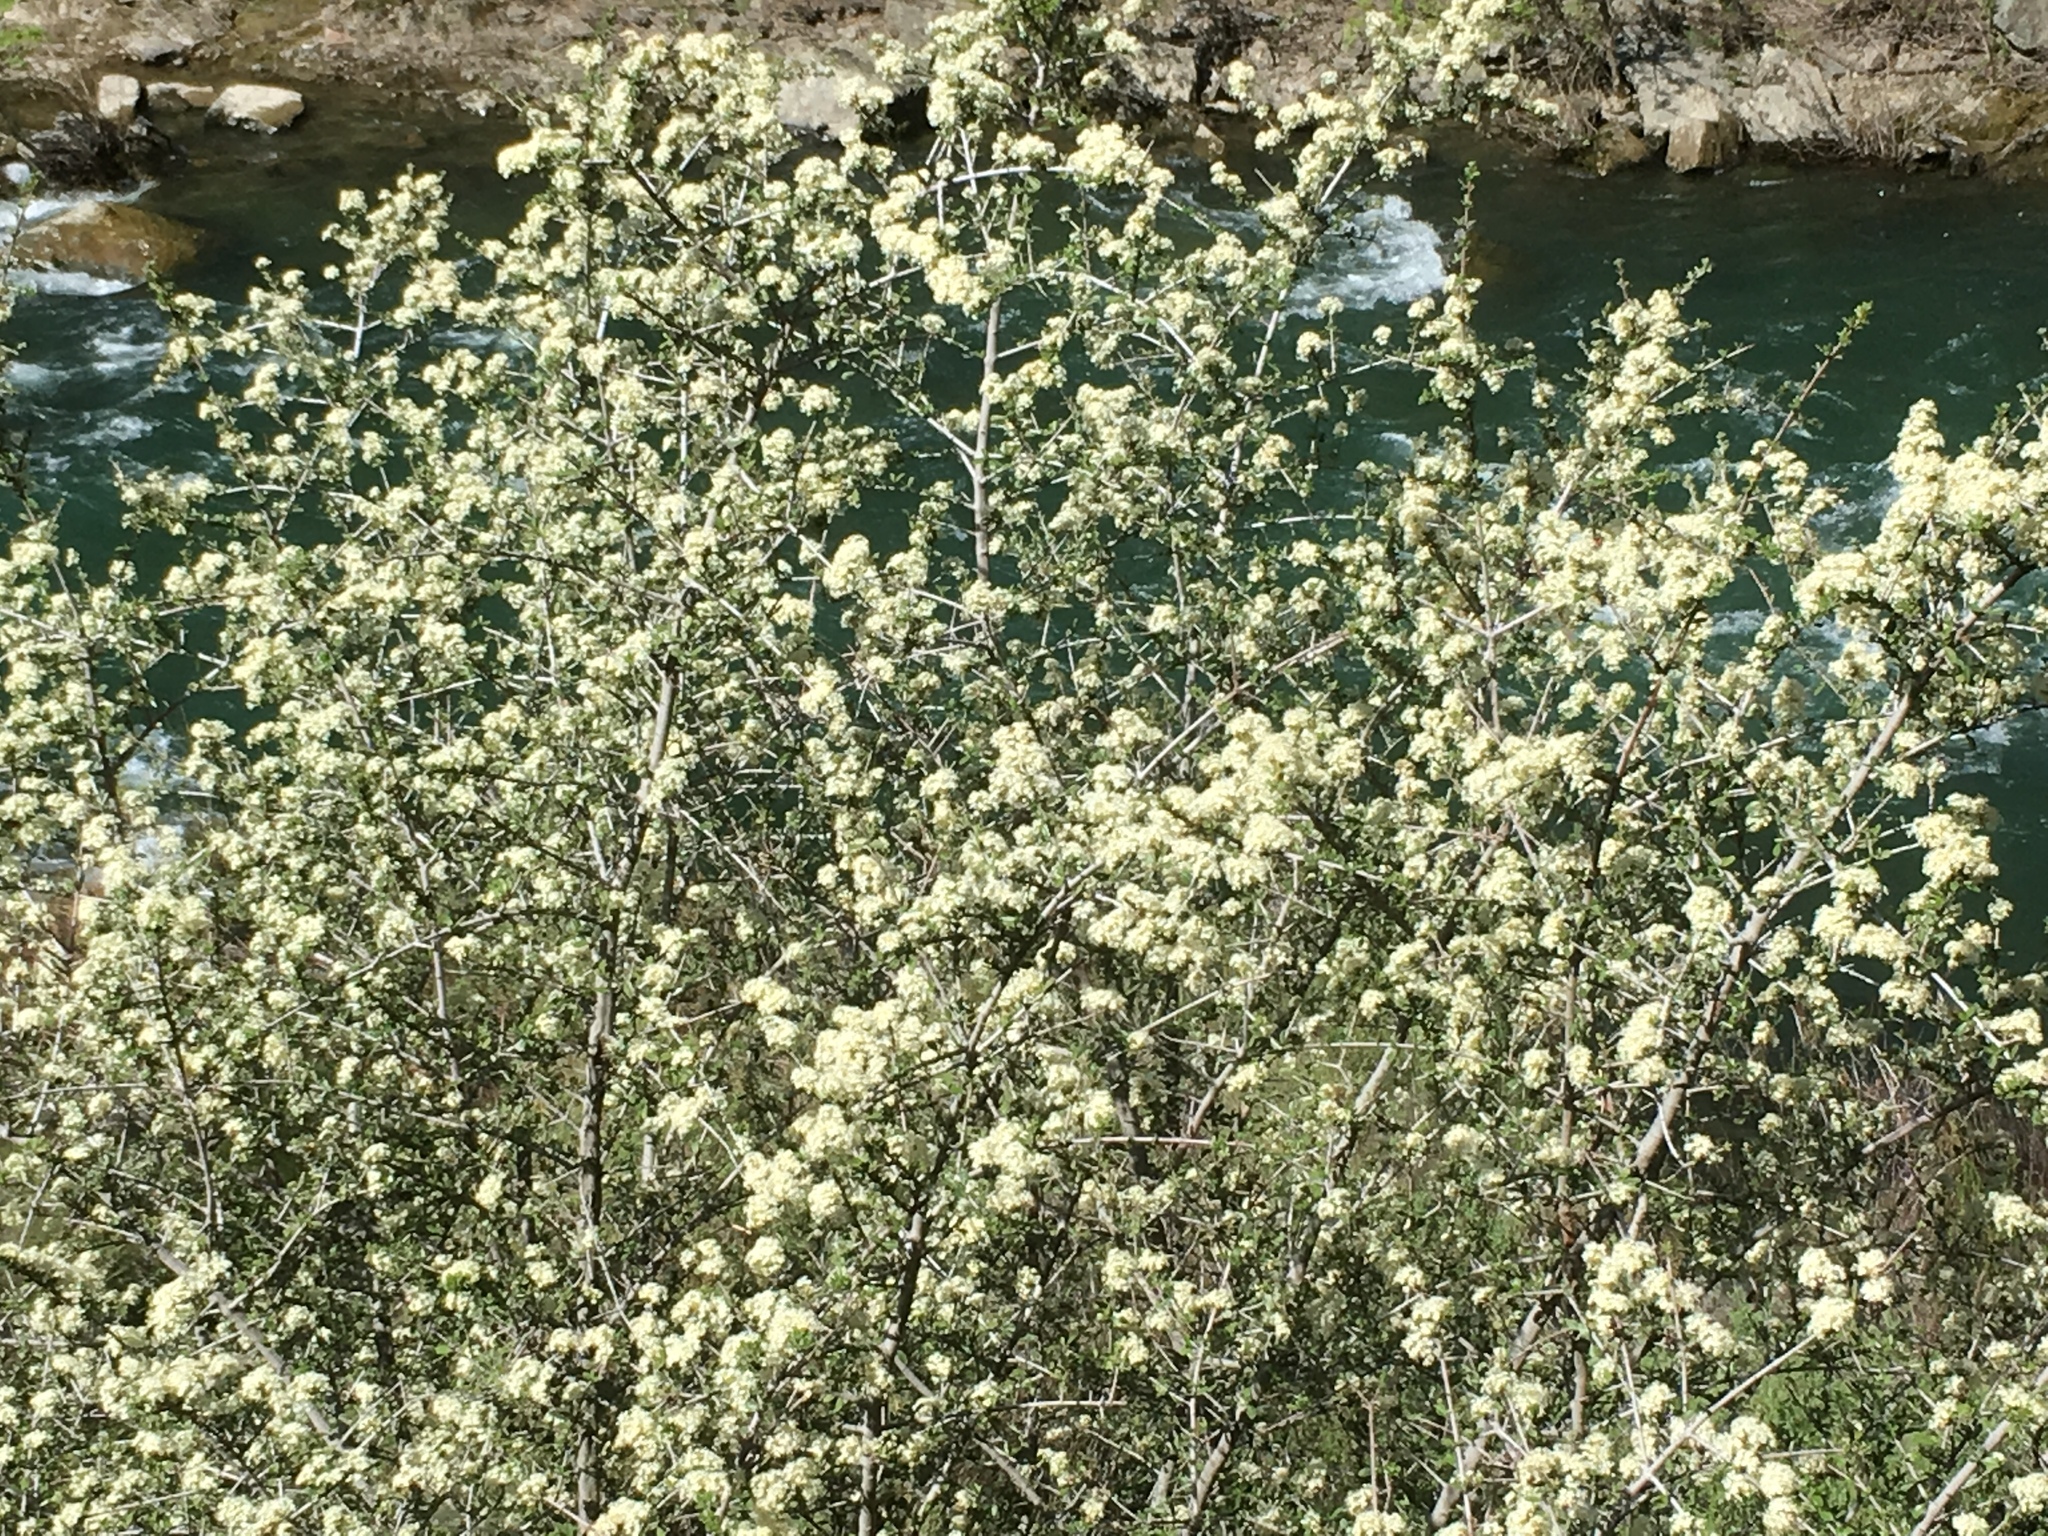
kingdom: Plantae
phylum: Tracheophyta
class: Magnoliopsida
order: Rosales
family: Rhamnaceae
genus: Ceanothus
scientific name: Ceanothus cuneatus
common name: Cuneate ceanothus
